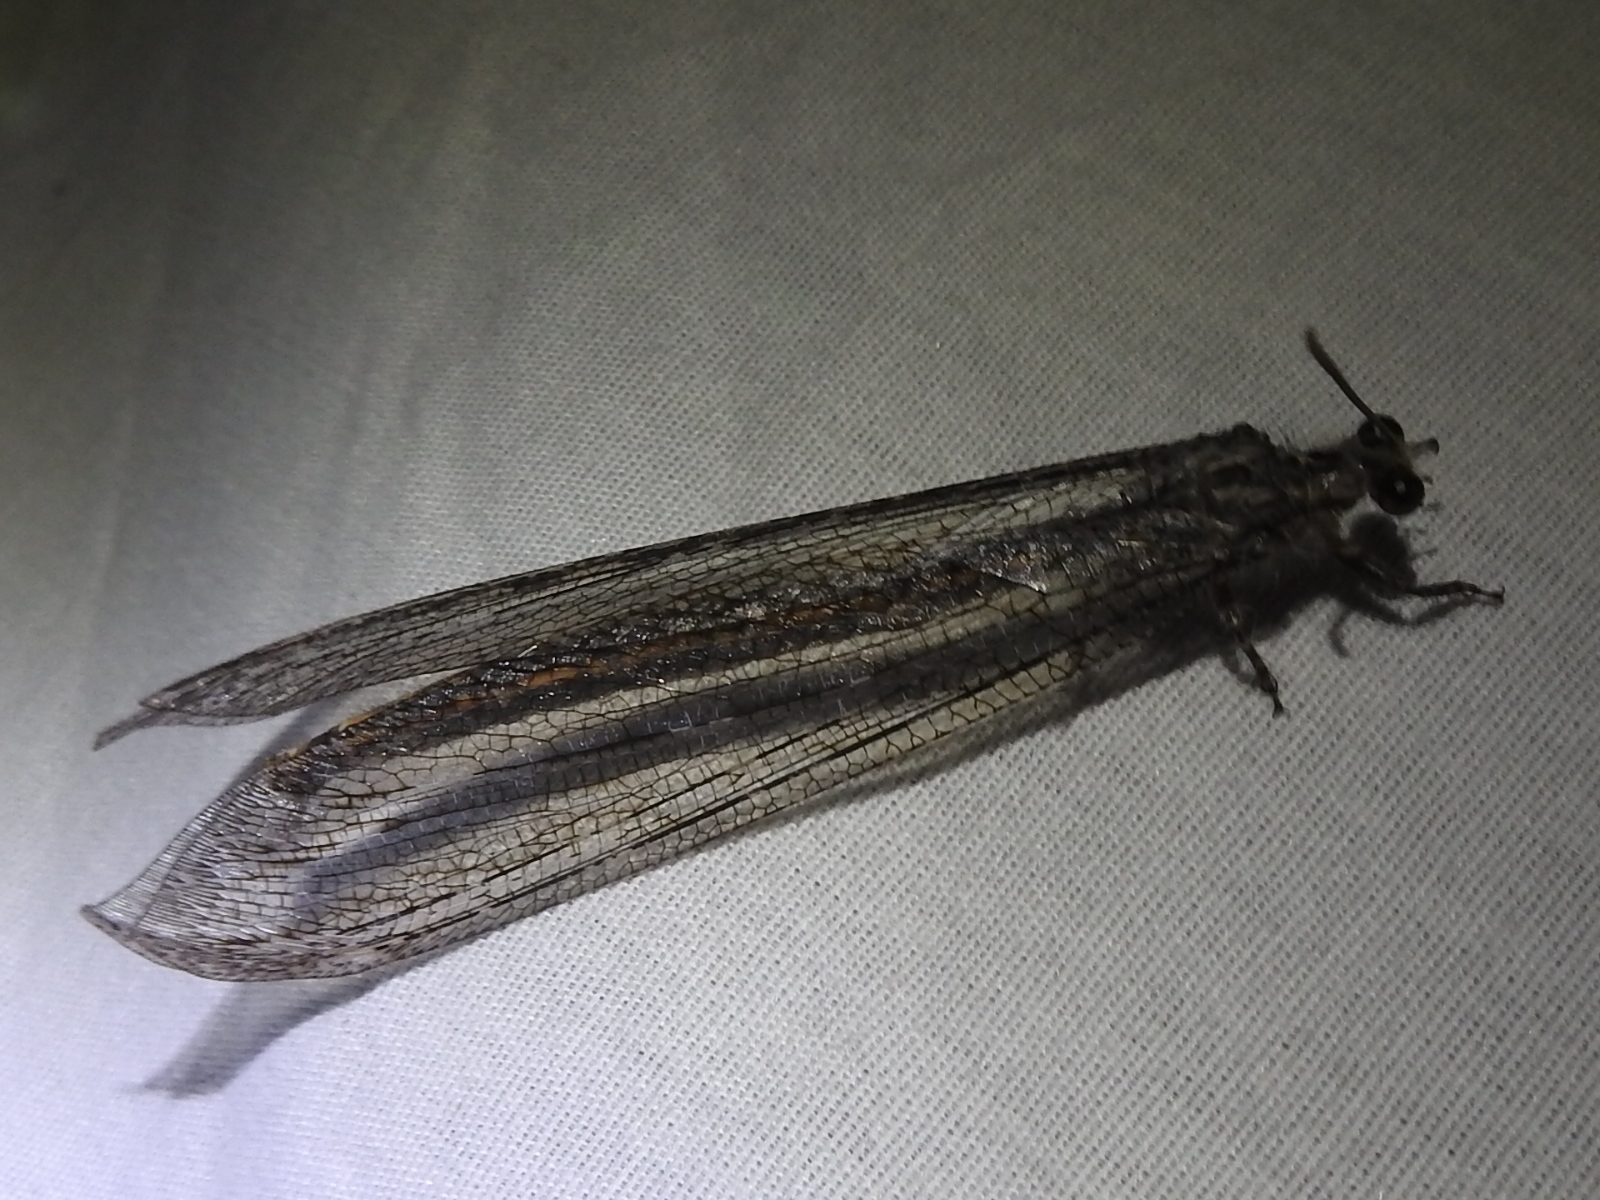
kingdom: Animalia
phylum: Arthropoda
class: Insecta
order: Neuroptera
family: Myrmeleontidae
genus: Vella
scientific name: Vella fallax
